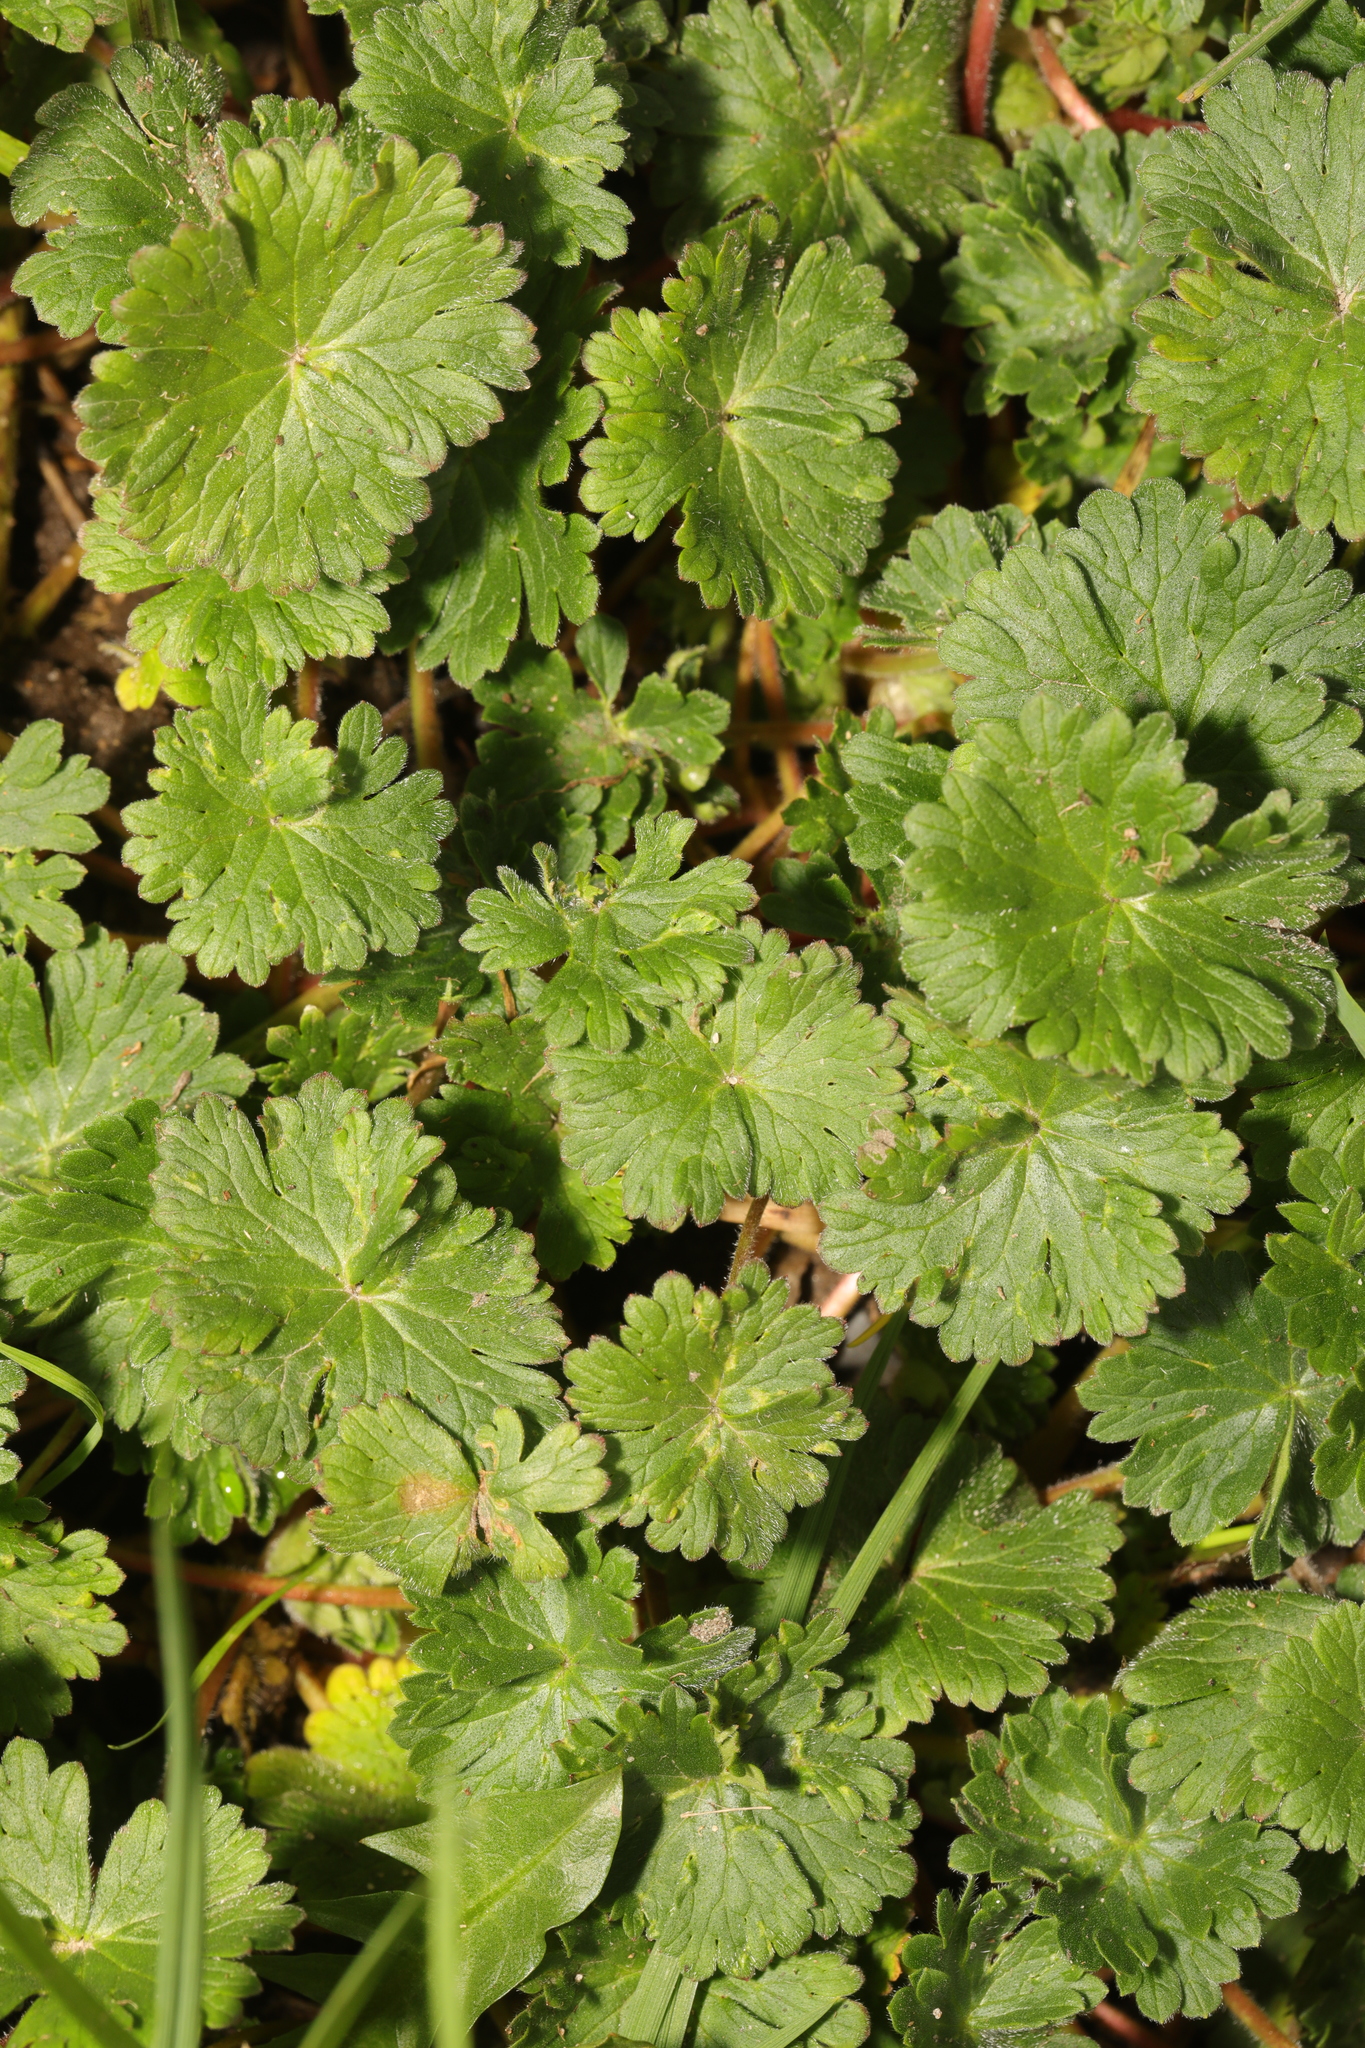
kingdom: Plantae
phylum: Tracheophyta
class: Magnoliopsida
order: Geraniales
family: Geraniaceae
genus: Geranium
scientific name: Geranium molle
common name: Dove's-foot crane's-bill
